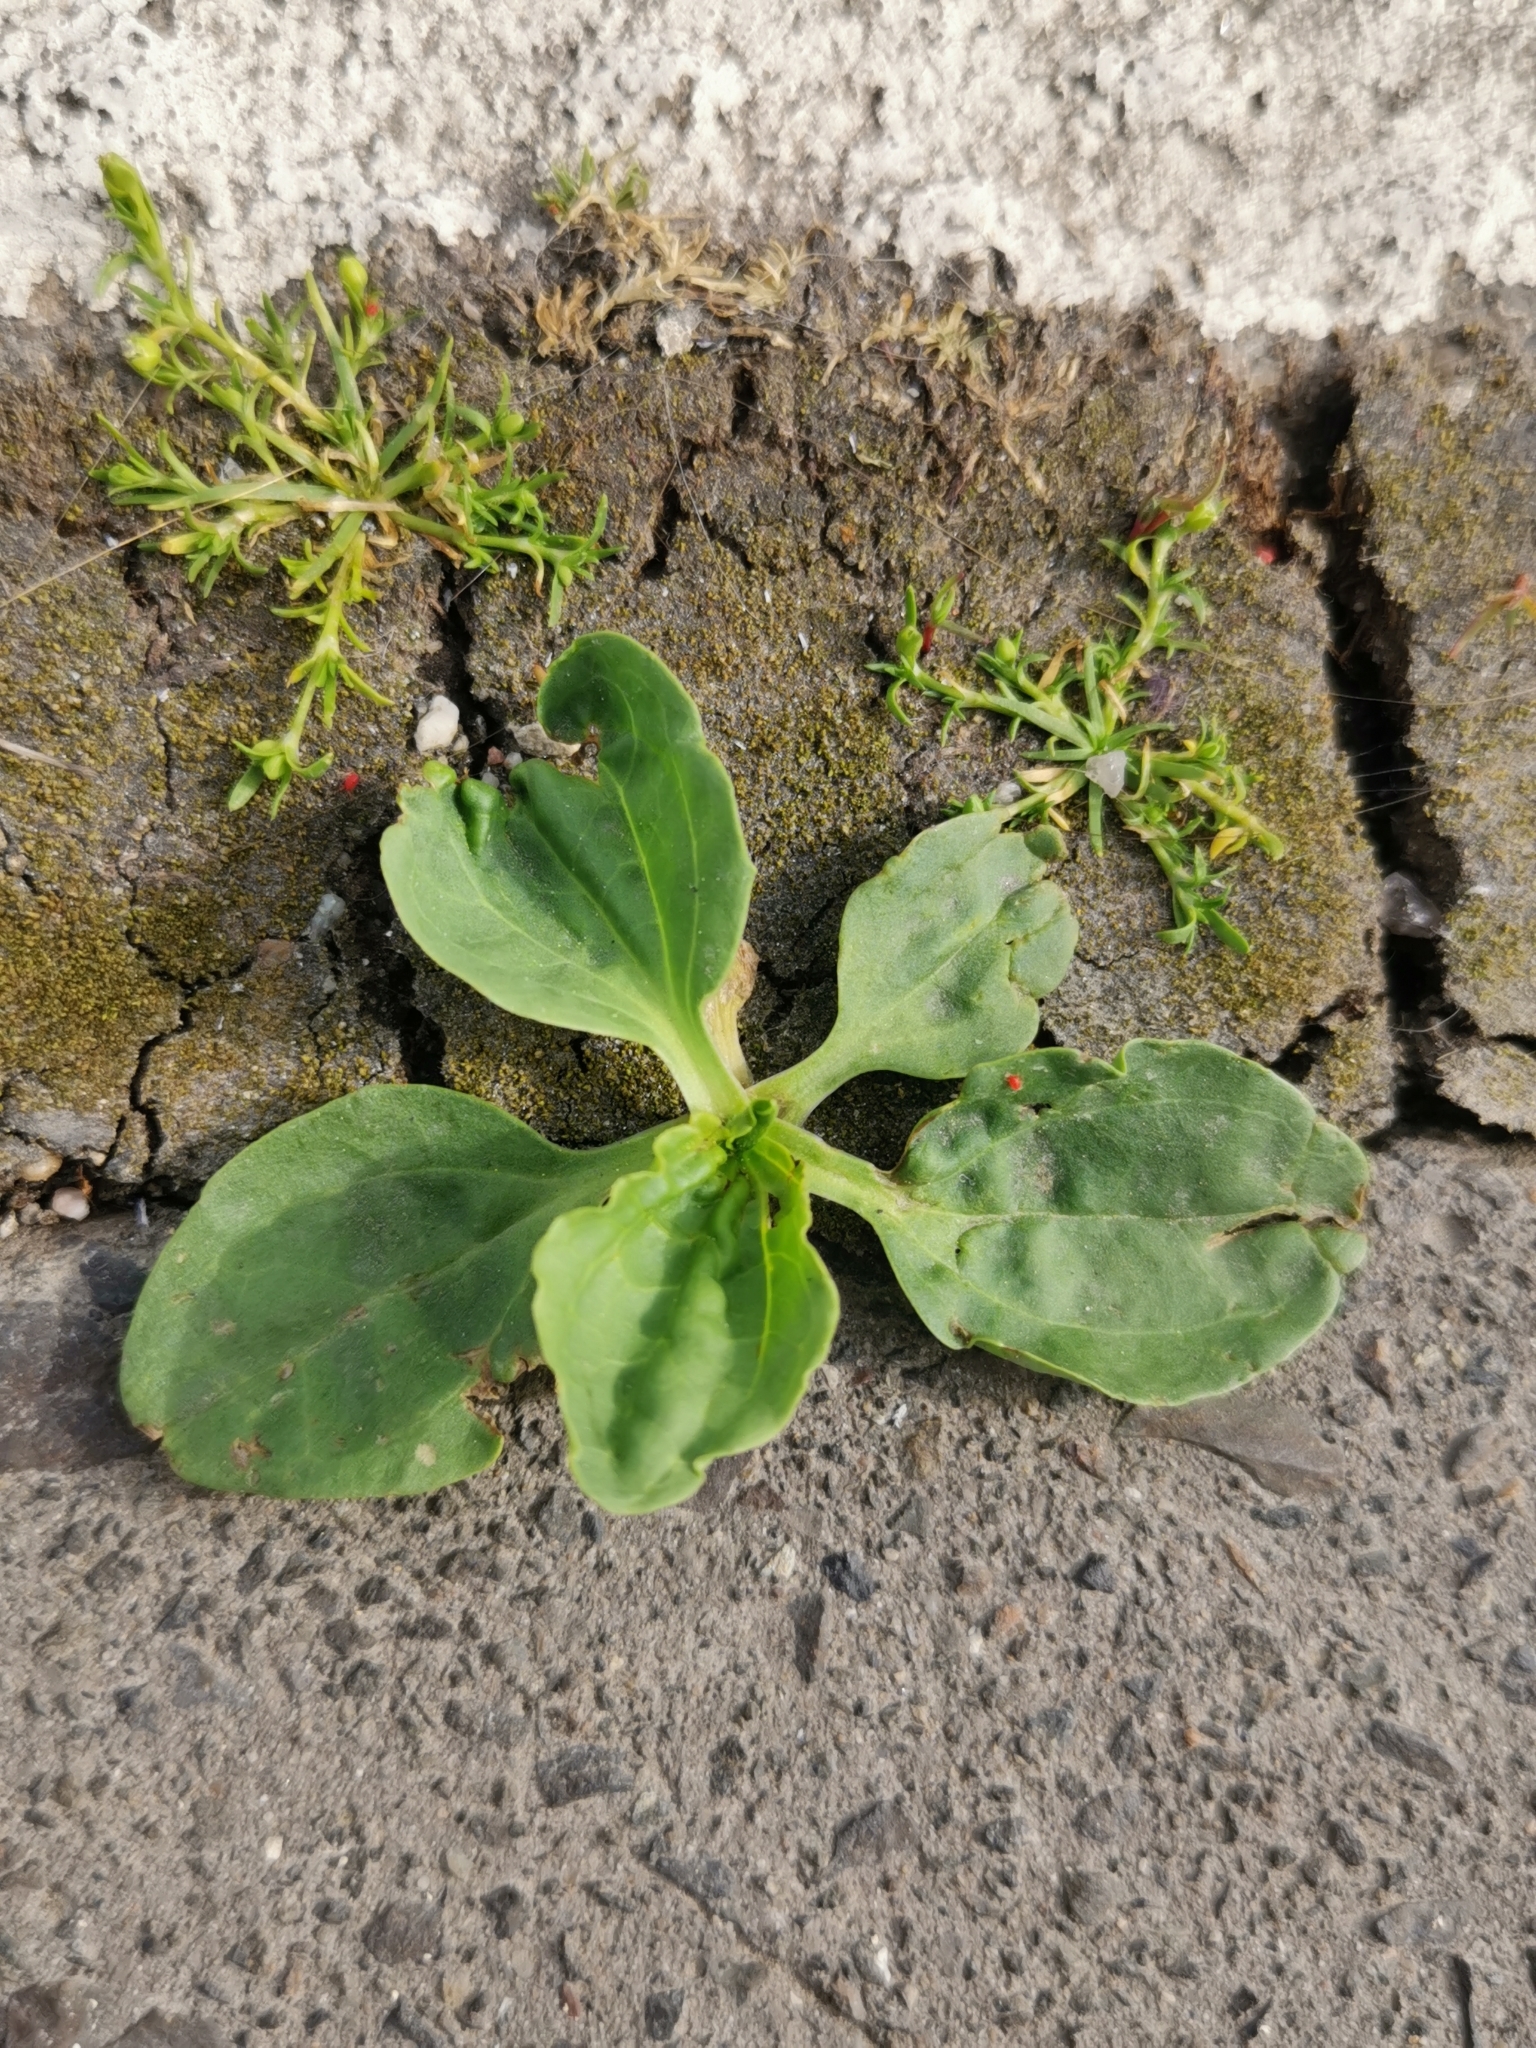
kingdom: Plantae
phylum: Tracheophyta
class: Magnoliopsida
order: Lamiales
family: Plantaginaceae
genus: Plantago
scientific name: Plantago major
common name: Common plantain
